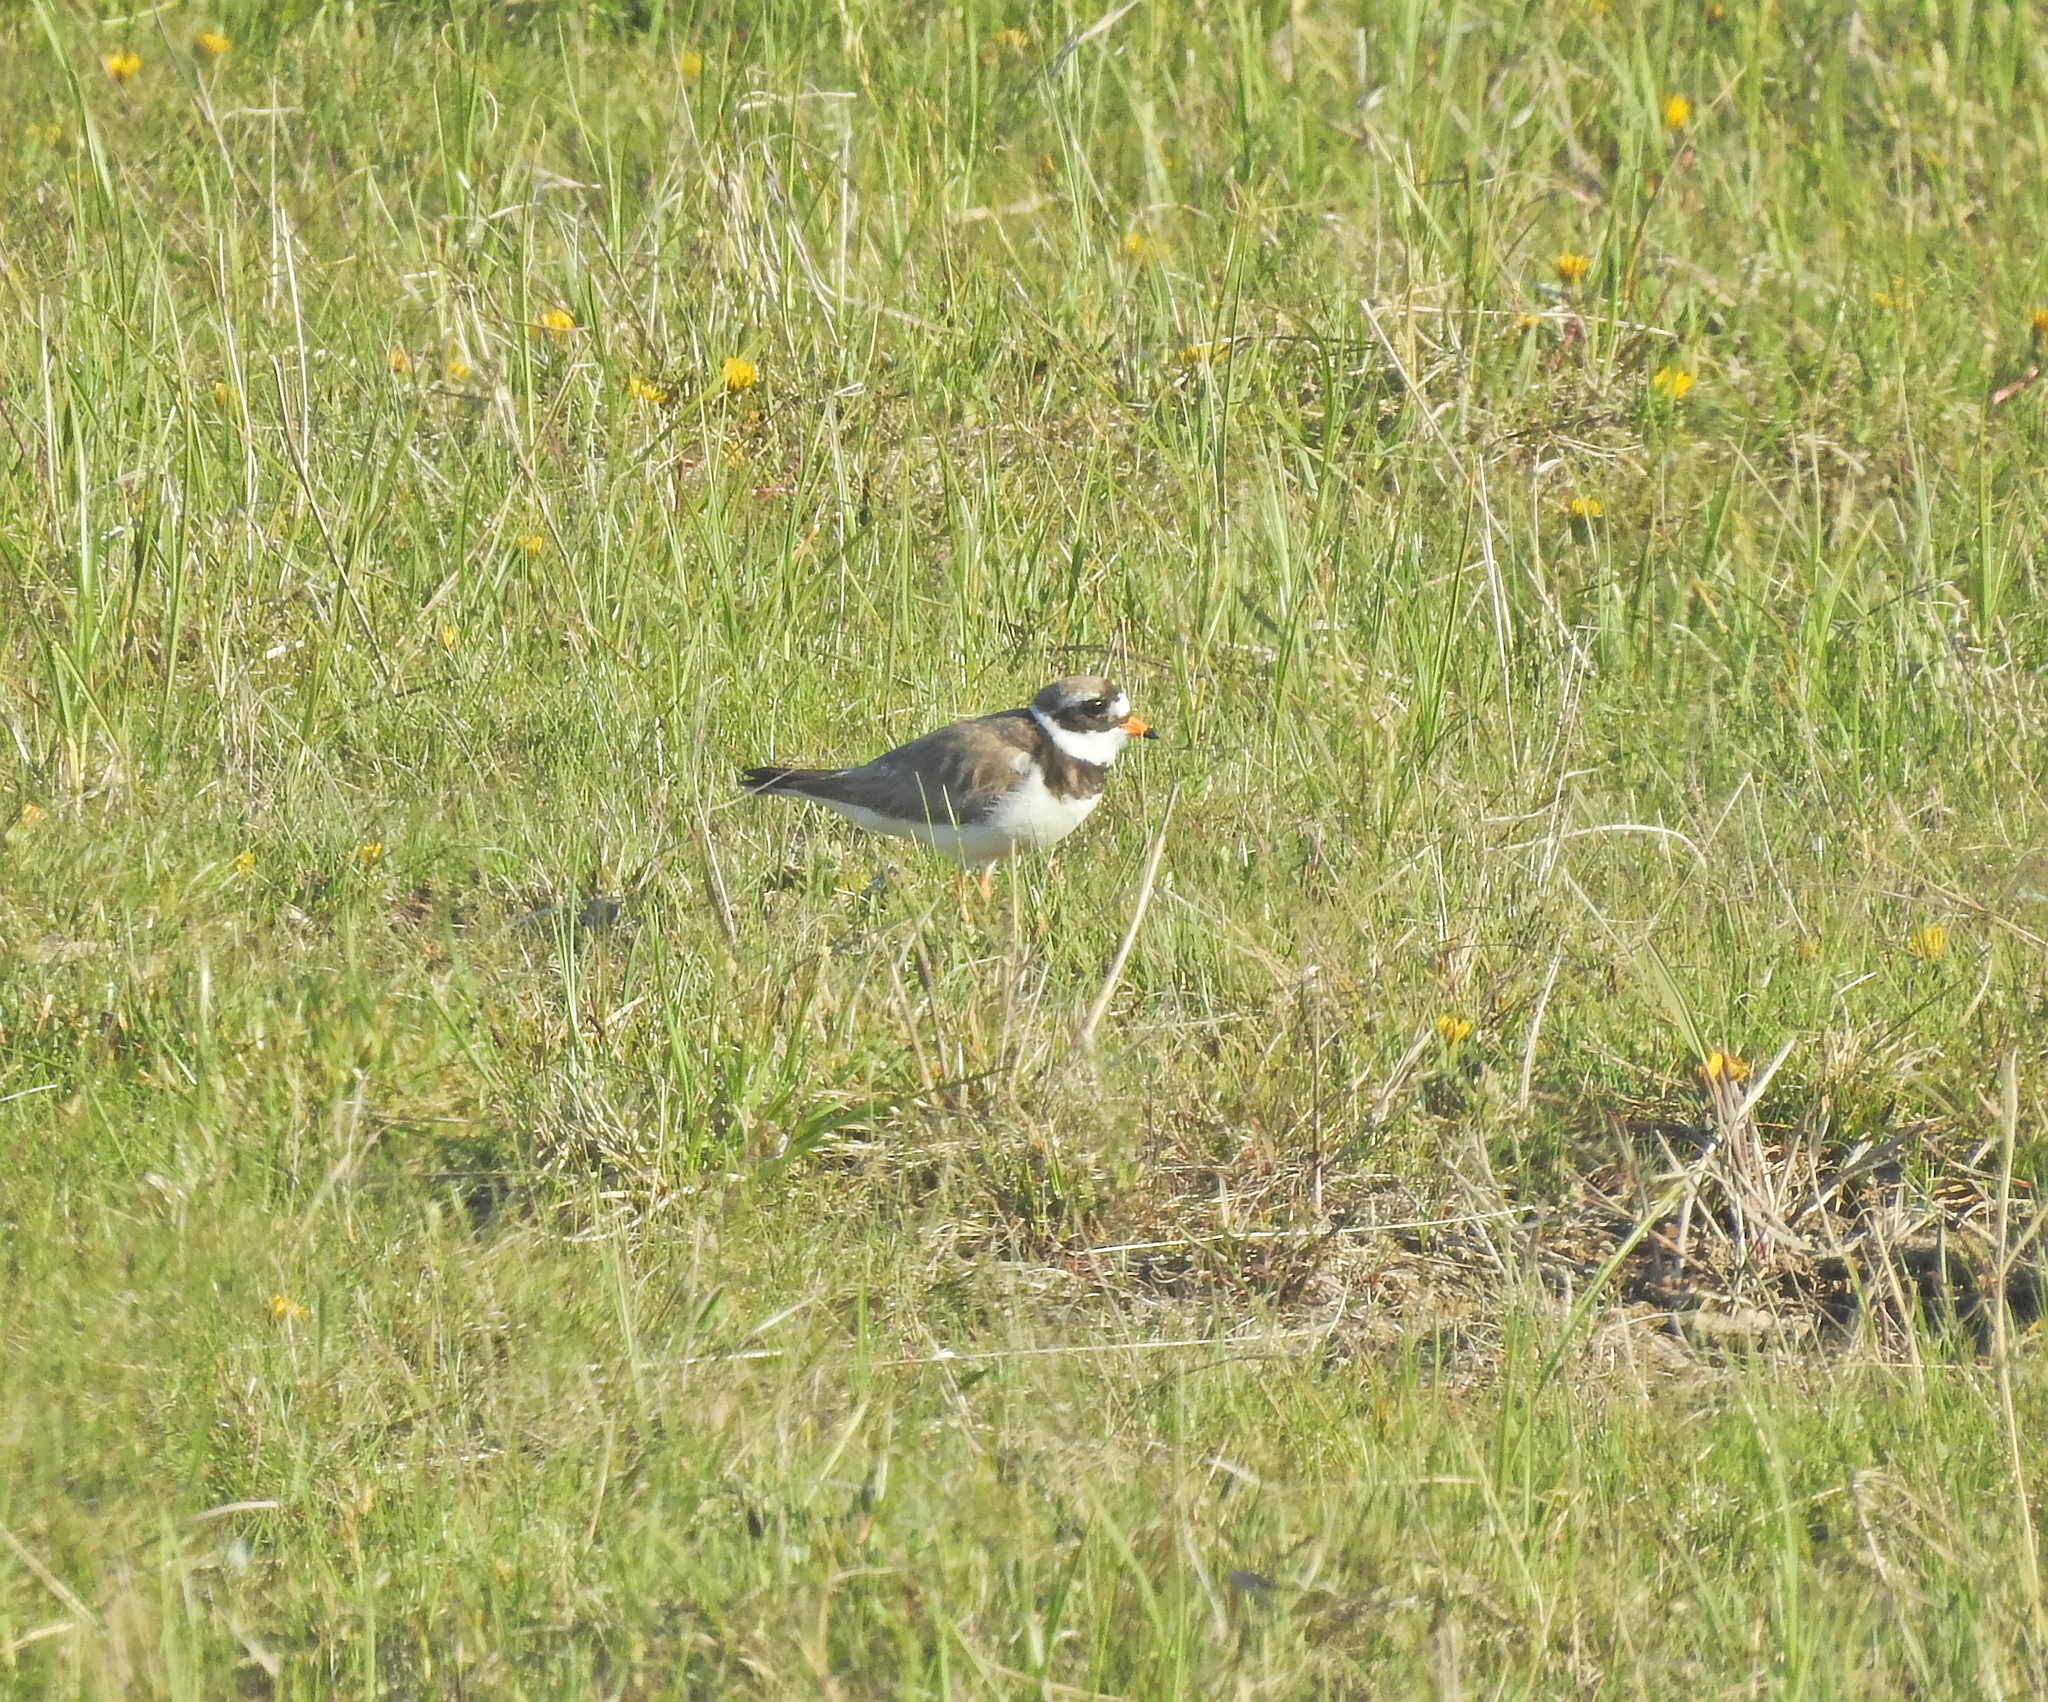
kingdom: Animalia
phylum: Chordata
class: Aves
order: Charadriiformes
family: Charadriidae
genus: Charadrius
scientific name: Charadrius hiaticula
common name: Common ringed plover
